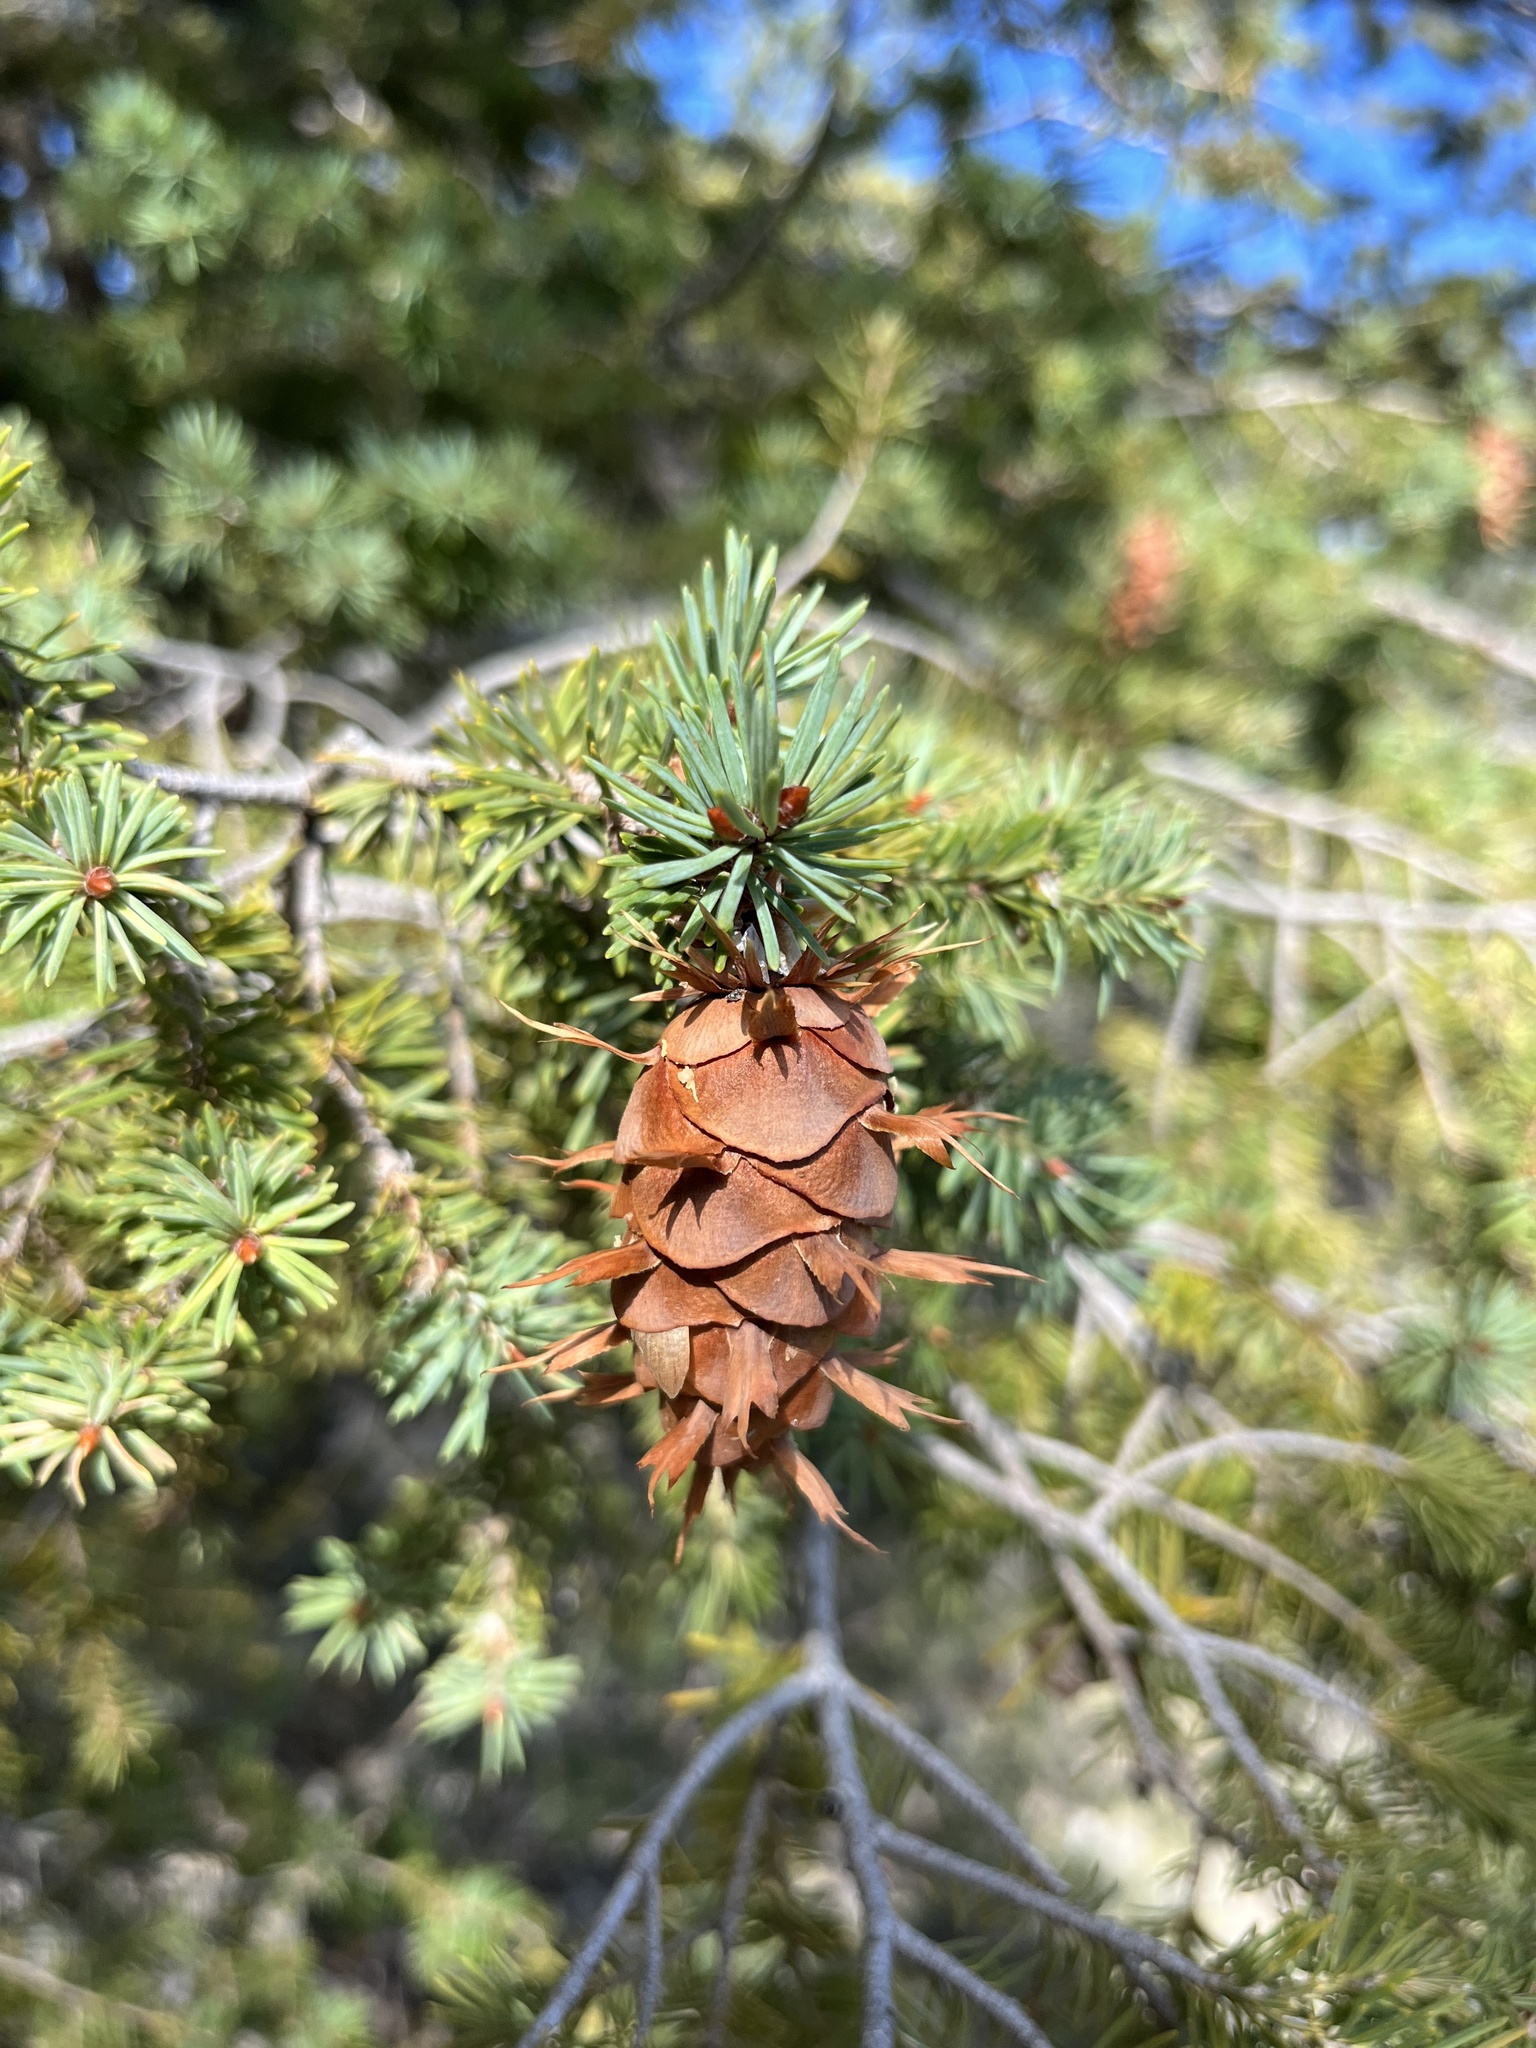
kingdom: Plantae
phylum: Tracheophyta
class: Pinopsida
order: Pinales
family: Pinaceae
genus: Pseudotsuga
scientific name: Pseudotsuga menziesii
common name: Douglas fir
